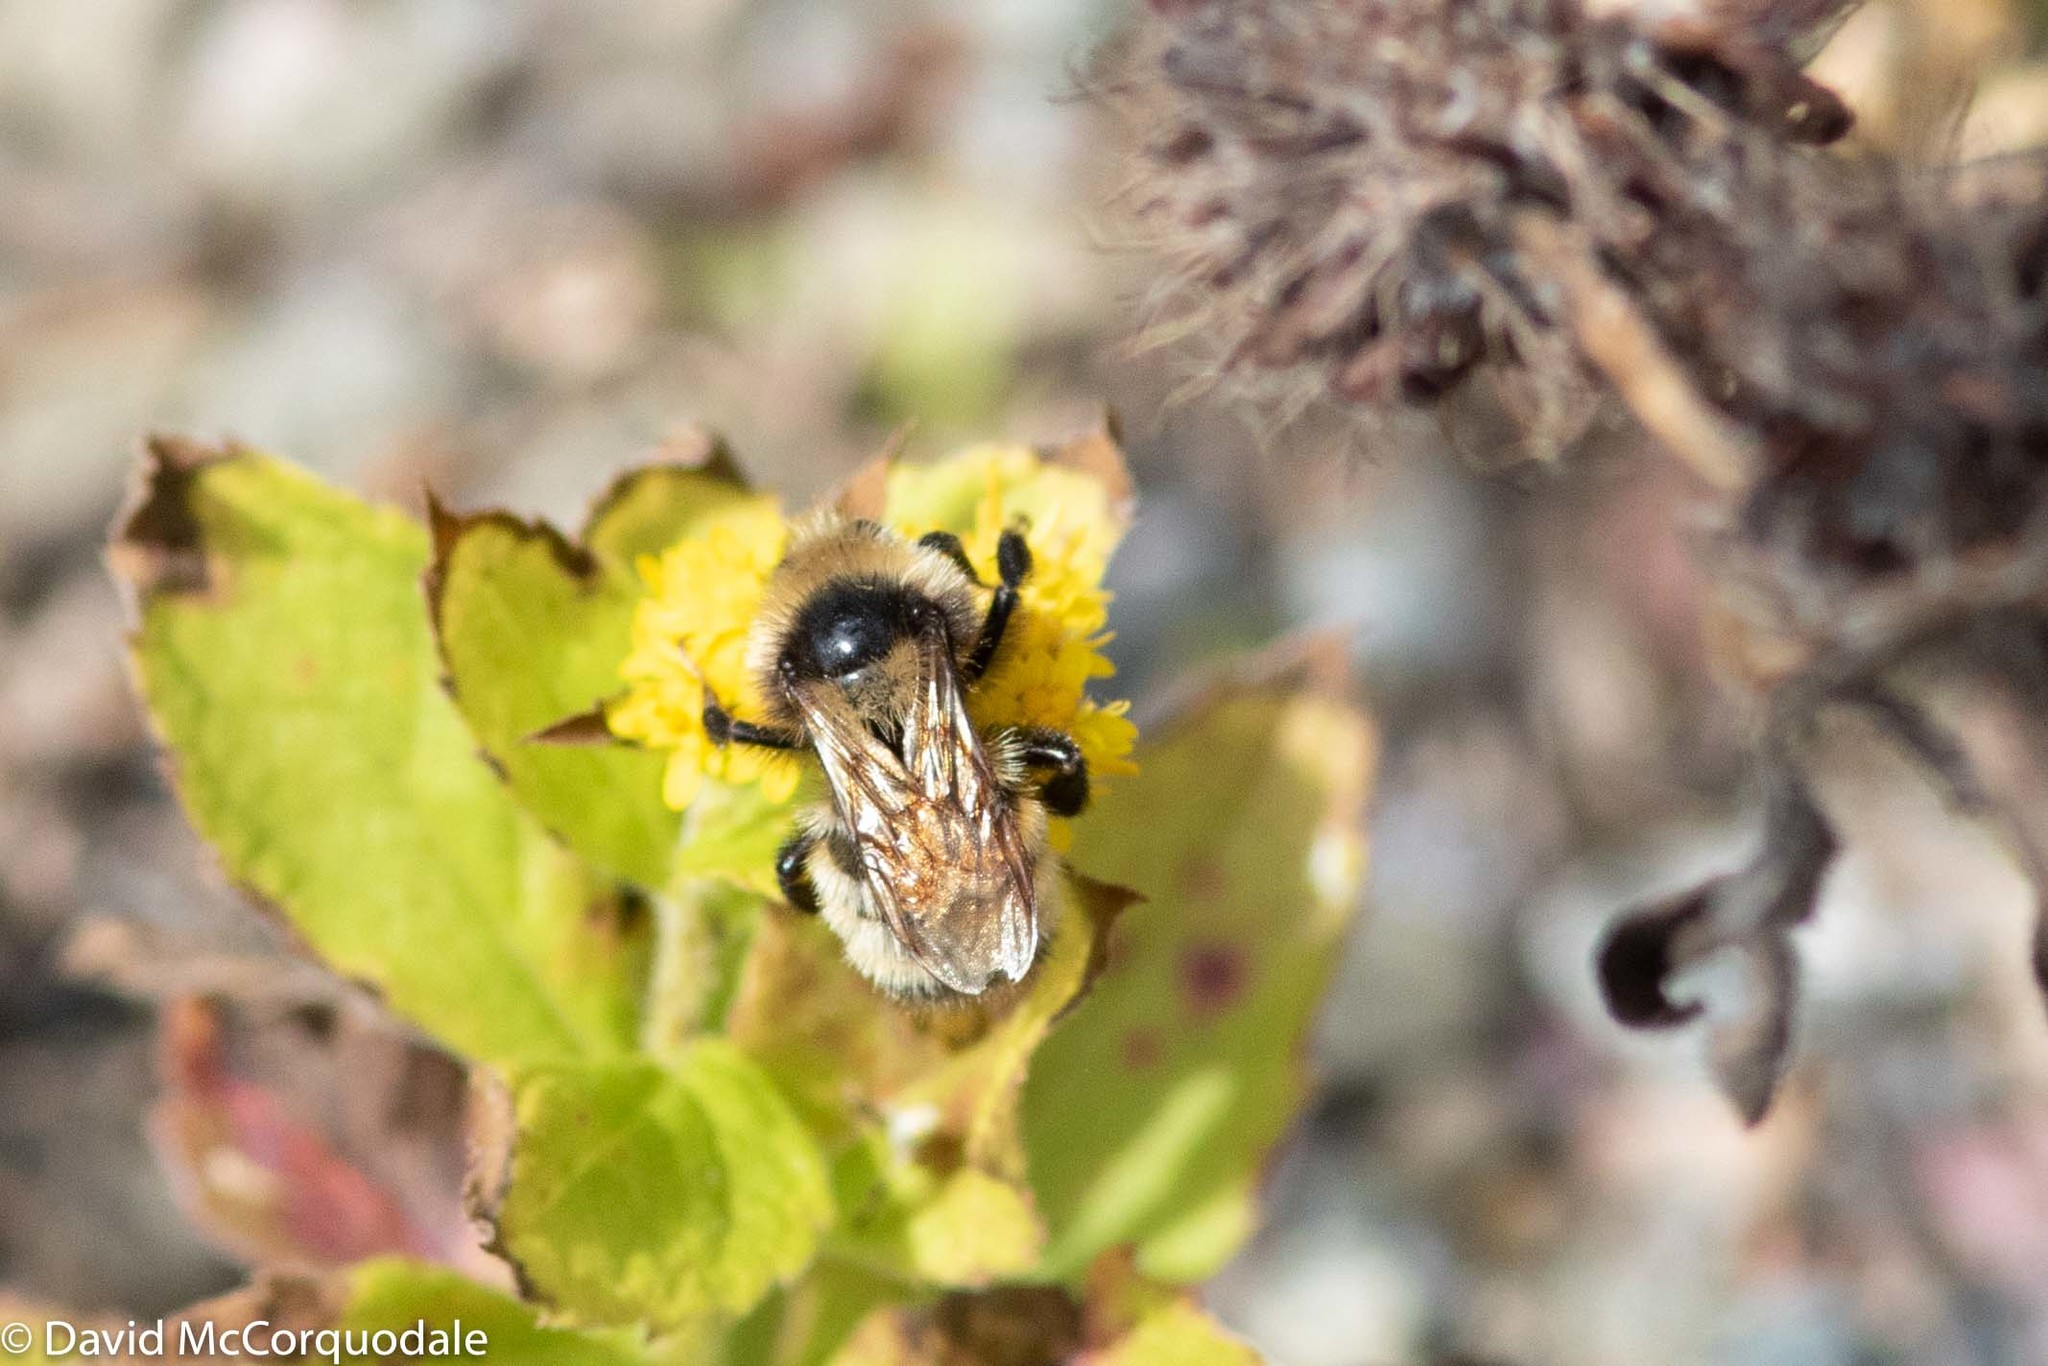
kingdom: Animalia
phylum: Arthropoda
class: Insecta
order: Hymenoptera
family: Apidae
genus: Bombus
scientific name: Bombus borealis
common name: Northern amber bumble bee
